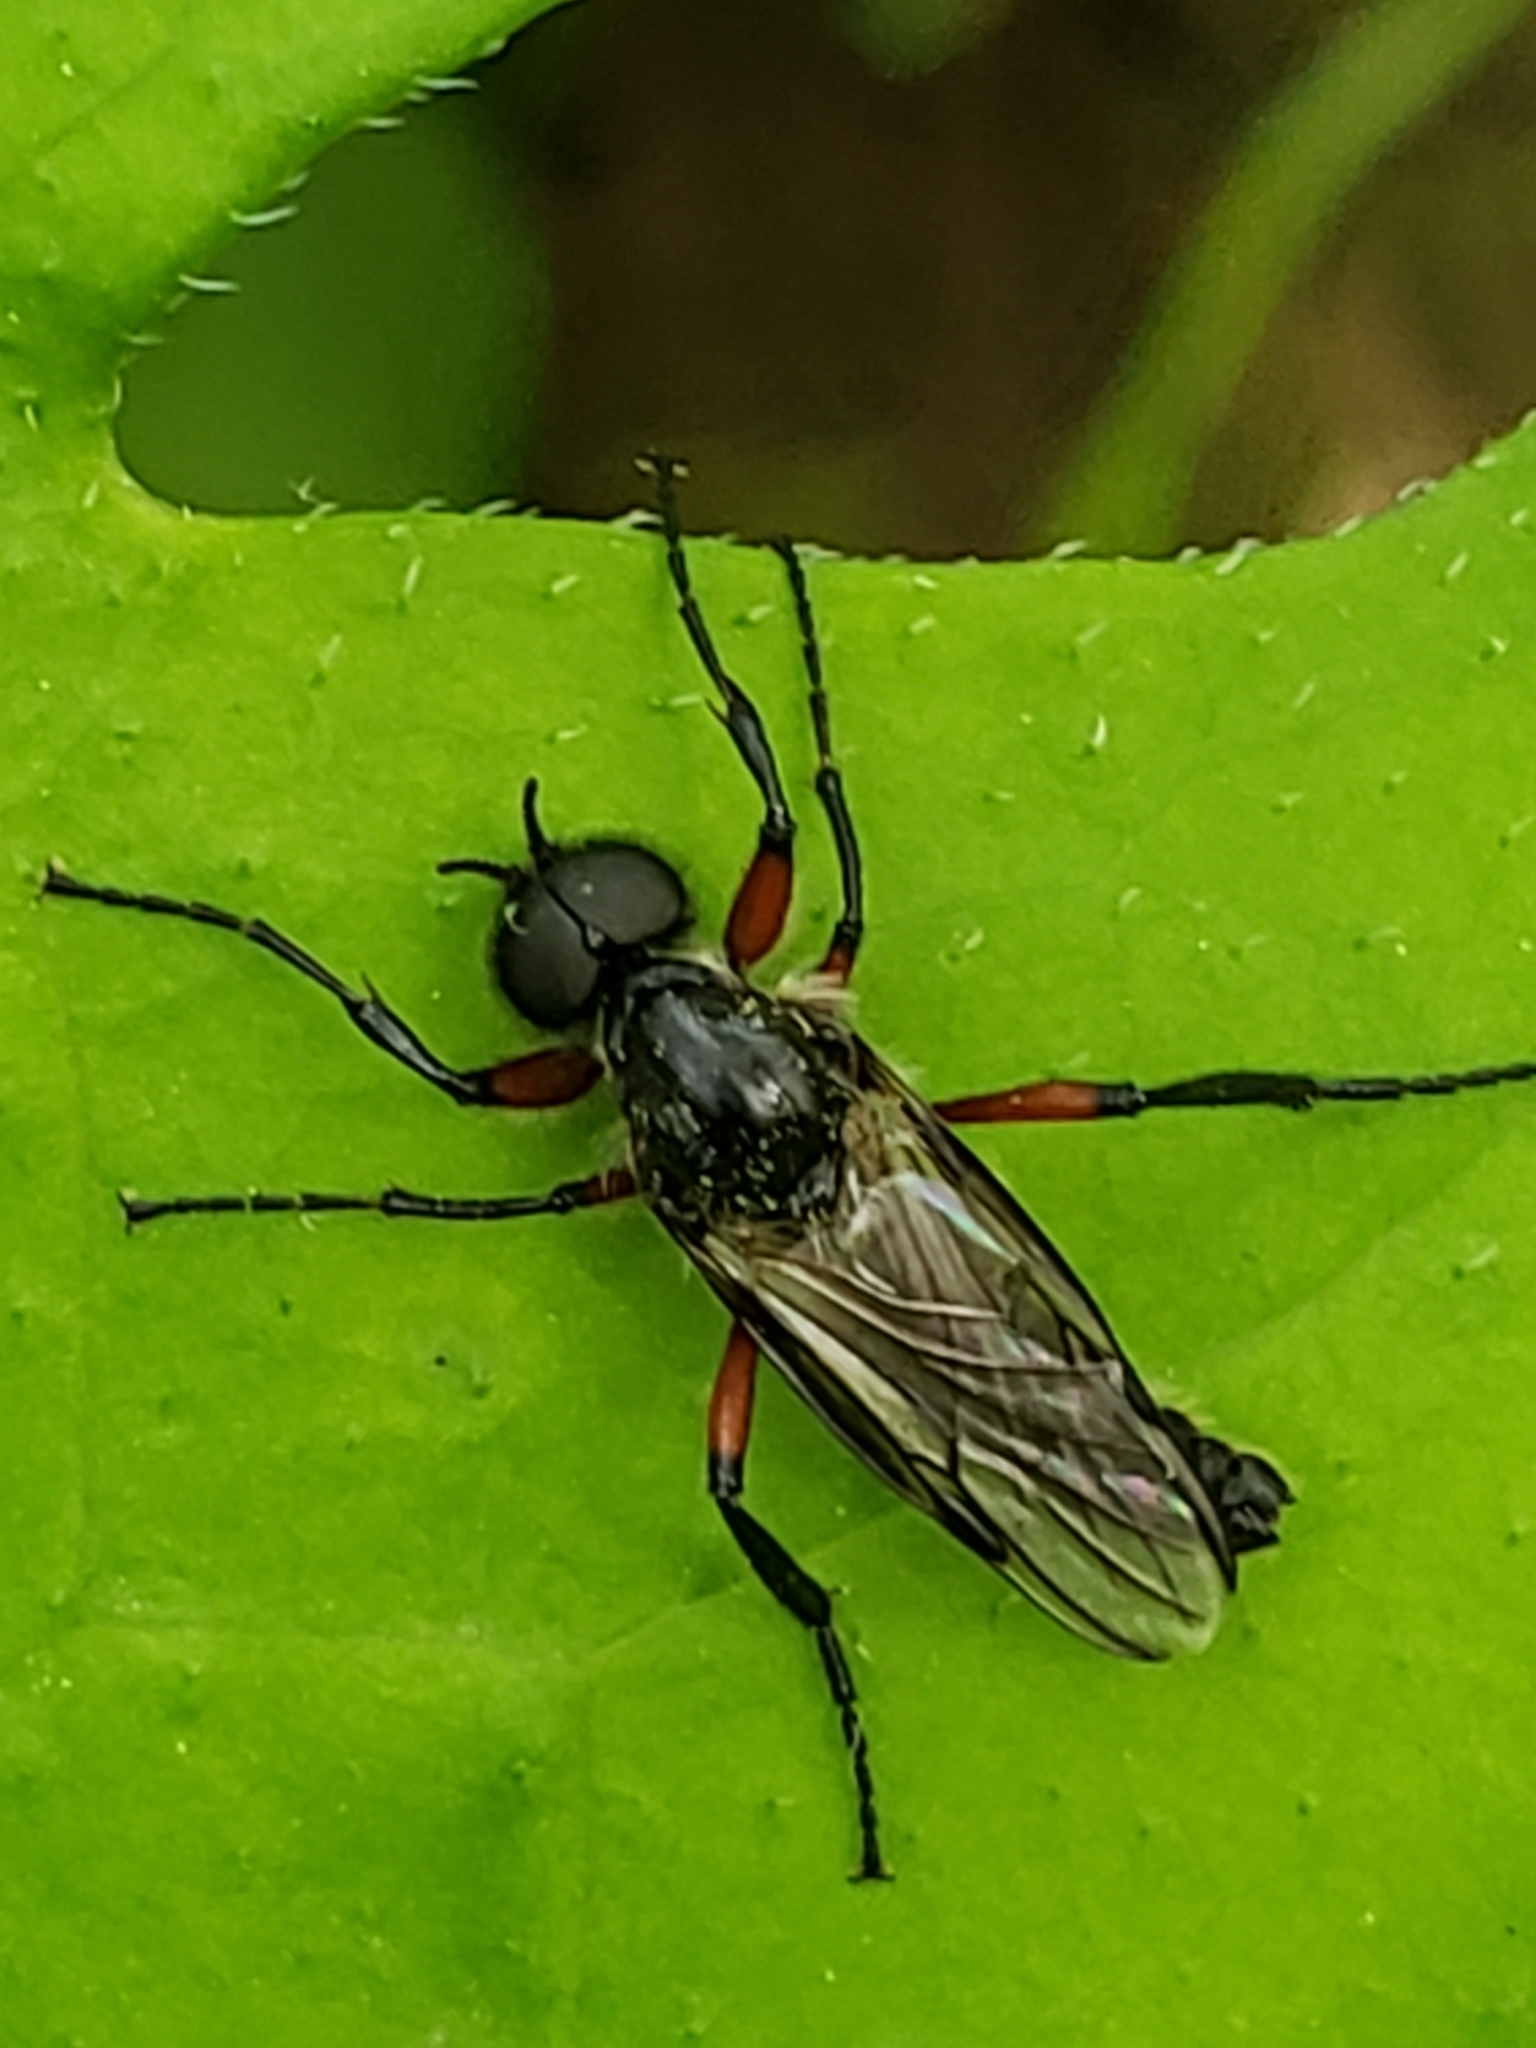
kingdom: Animalia
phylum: Arthropoda
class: Insecta
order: Diptera
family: Bibionidae
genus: Bibio
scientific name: Bibio femoratus
